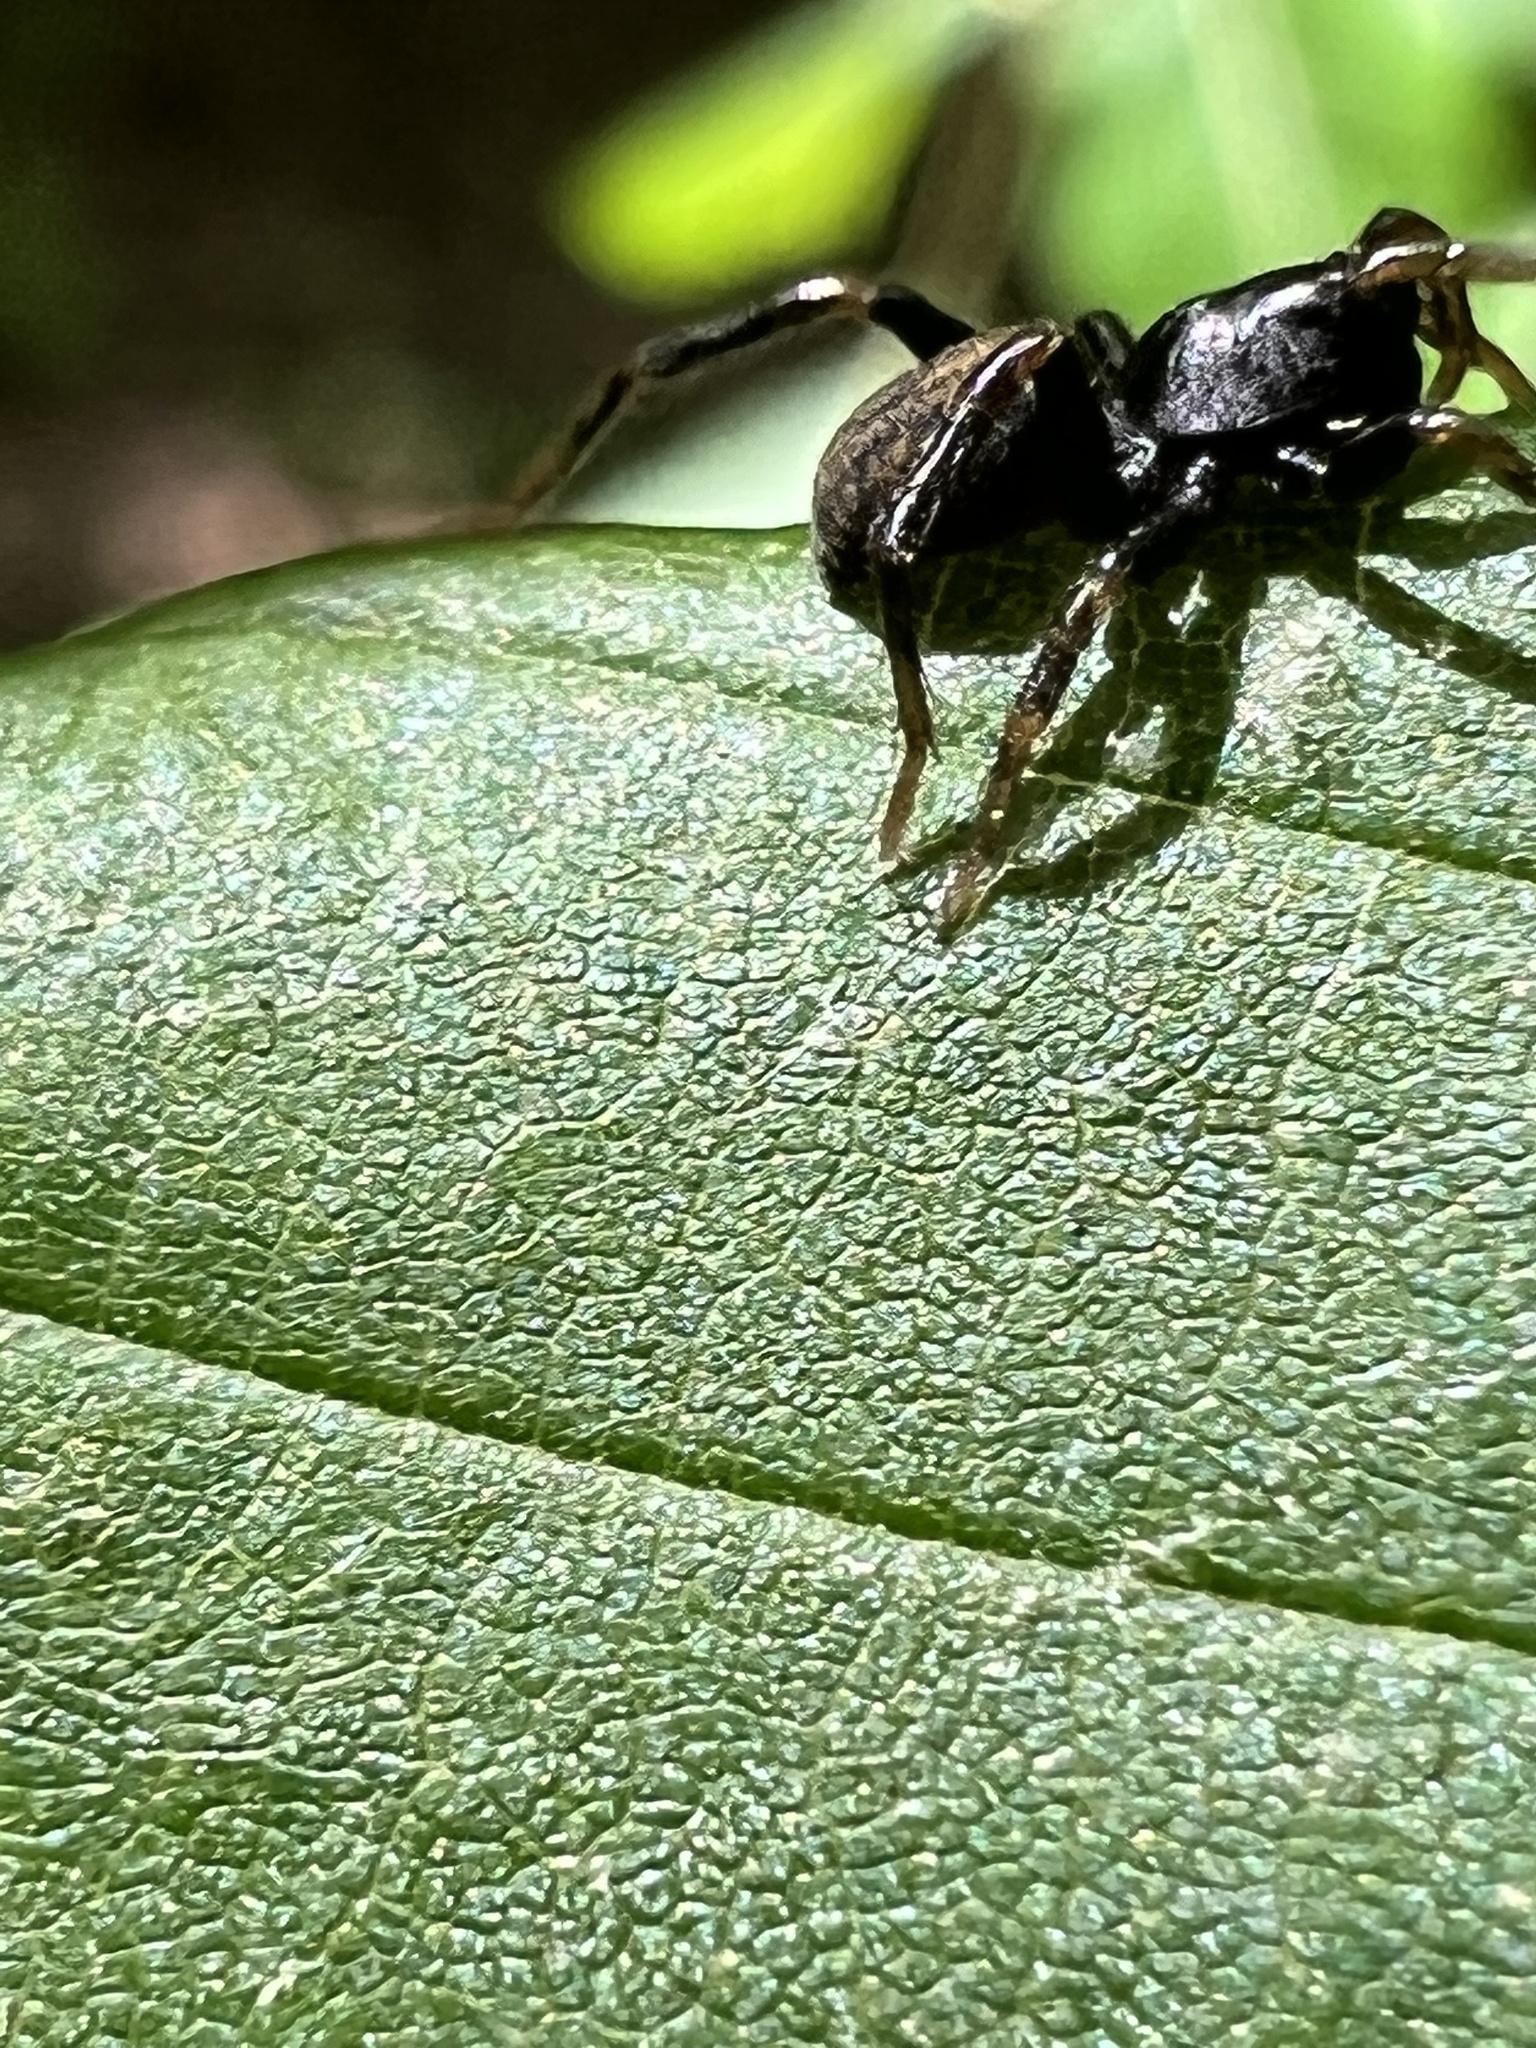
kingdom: Animalia
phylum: Arthropoda
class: Arachnida
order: Araneae
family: Lycosidae
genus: Allocosa
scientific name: Allocosa funerea
